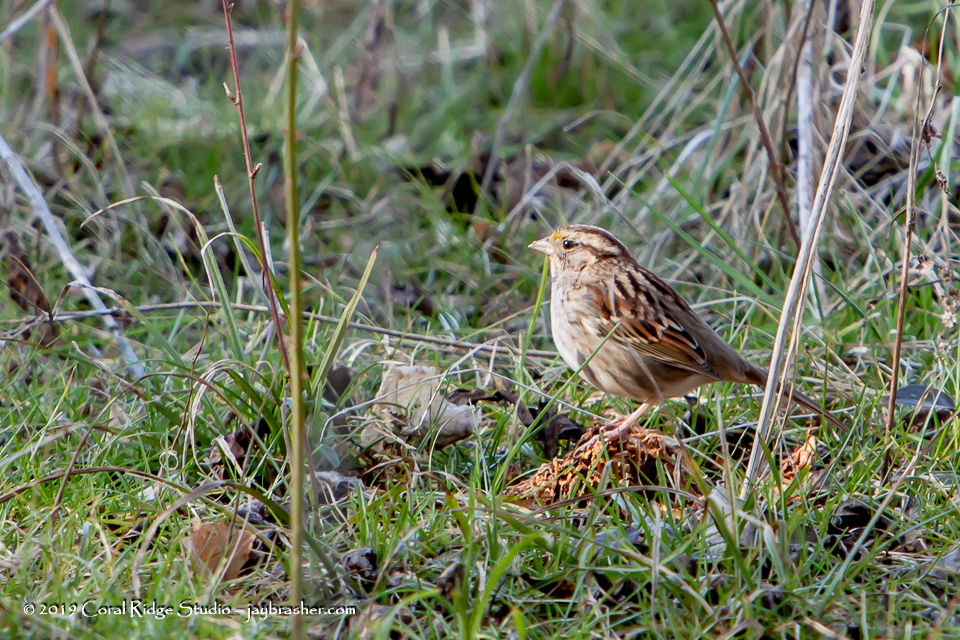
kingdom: Animalia
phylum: Chordata
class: Aves
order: Passeriformes
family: Passerellidae
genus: Zonotrichia
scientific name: Zonotrichia albicollis
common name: White-throated sparrow
